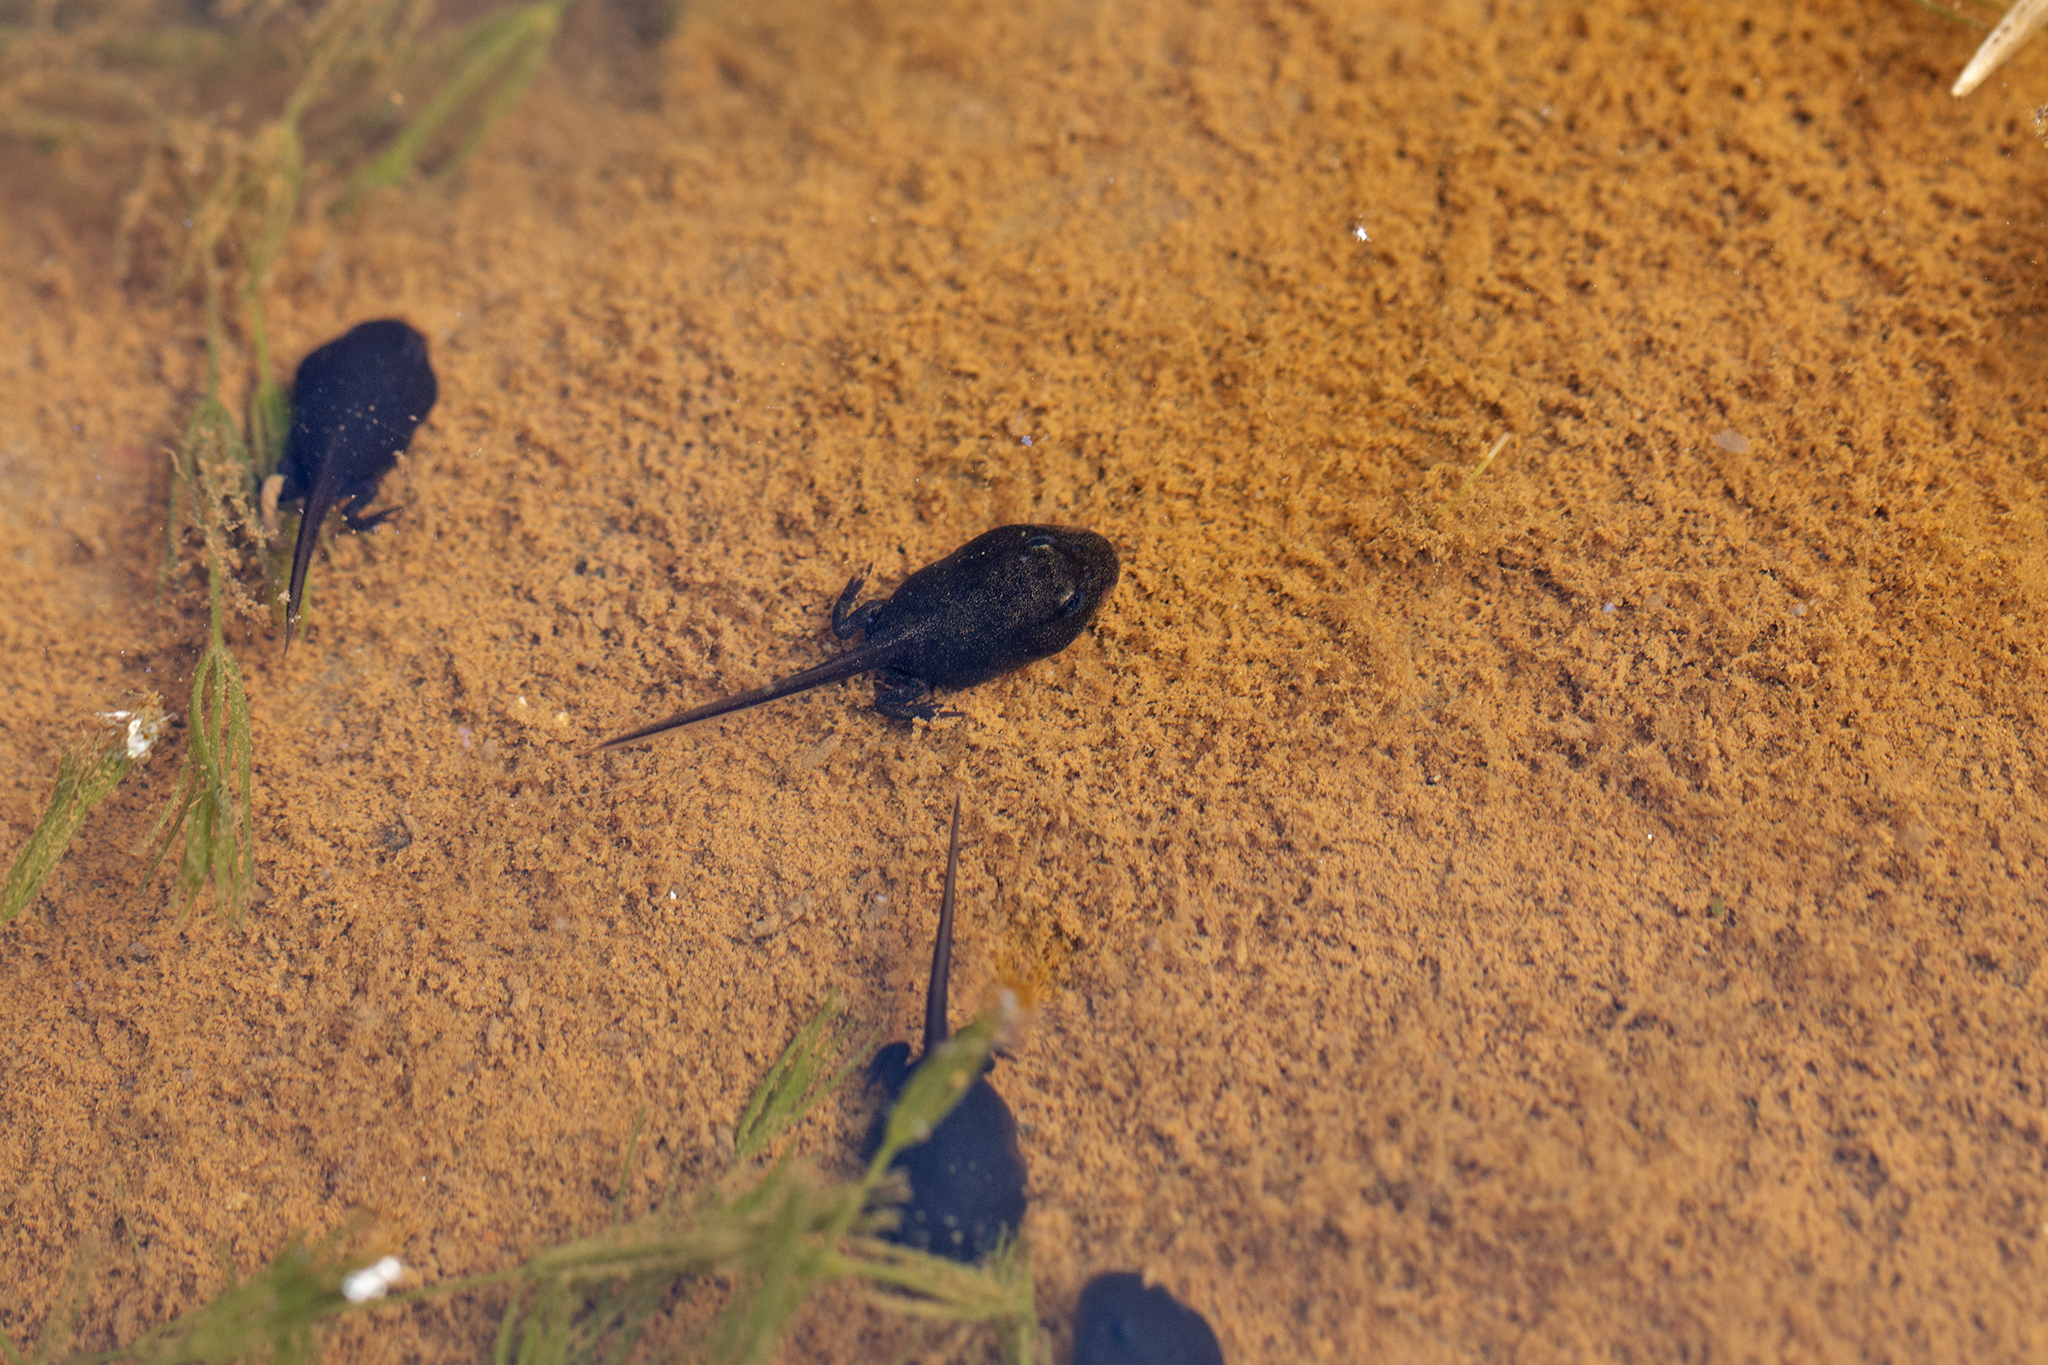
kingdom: Animalia
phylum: Chordata
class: Amphibia
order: Anura
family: Bufonidae
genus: Bufo
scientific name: Bufo bufo
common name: Common toad
